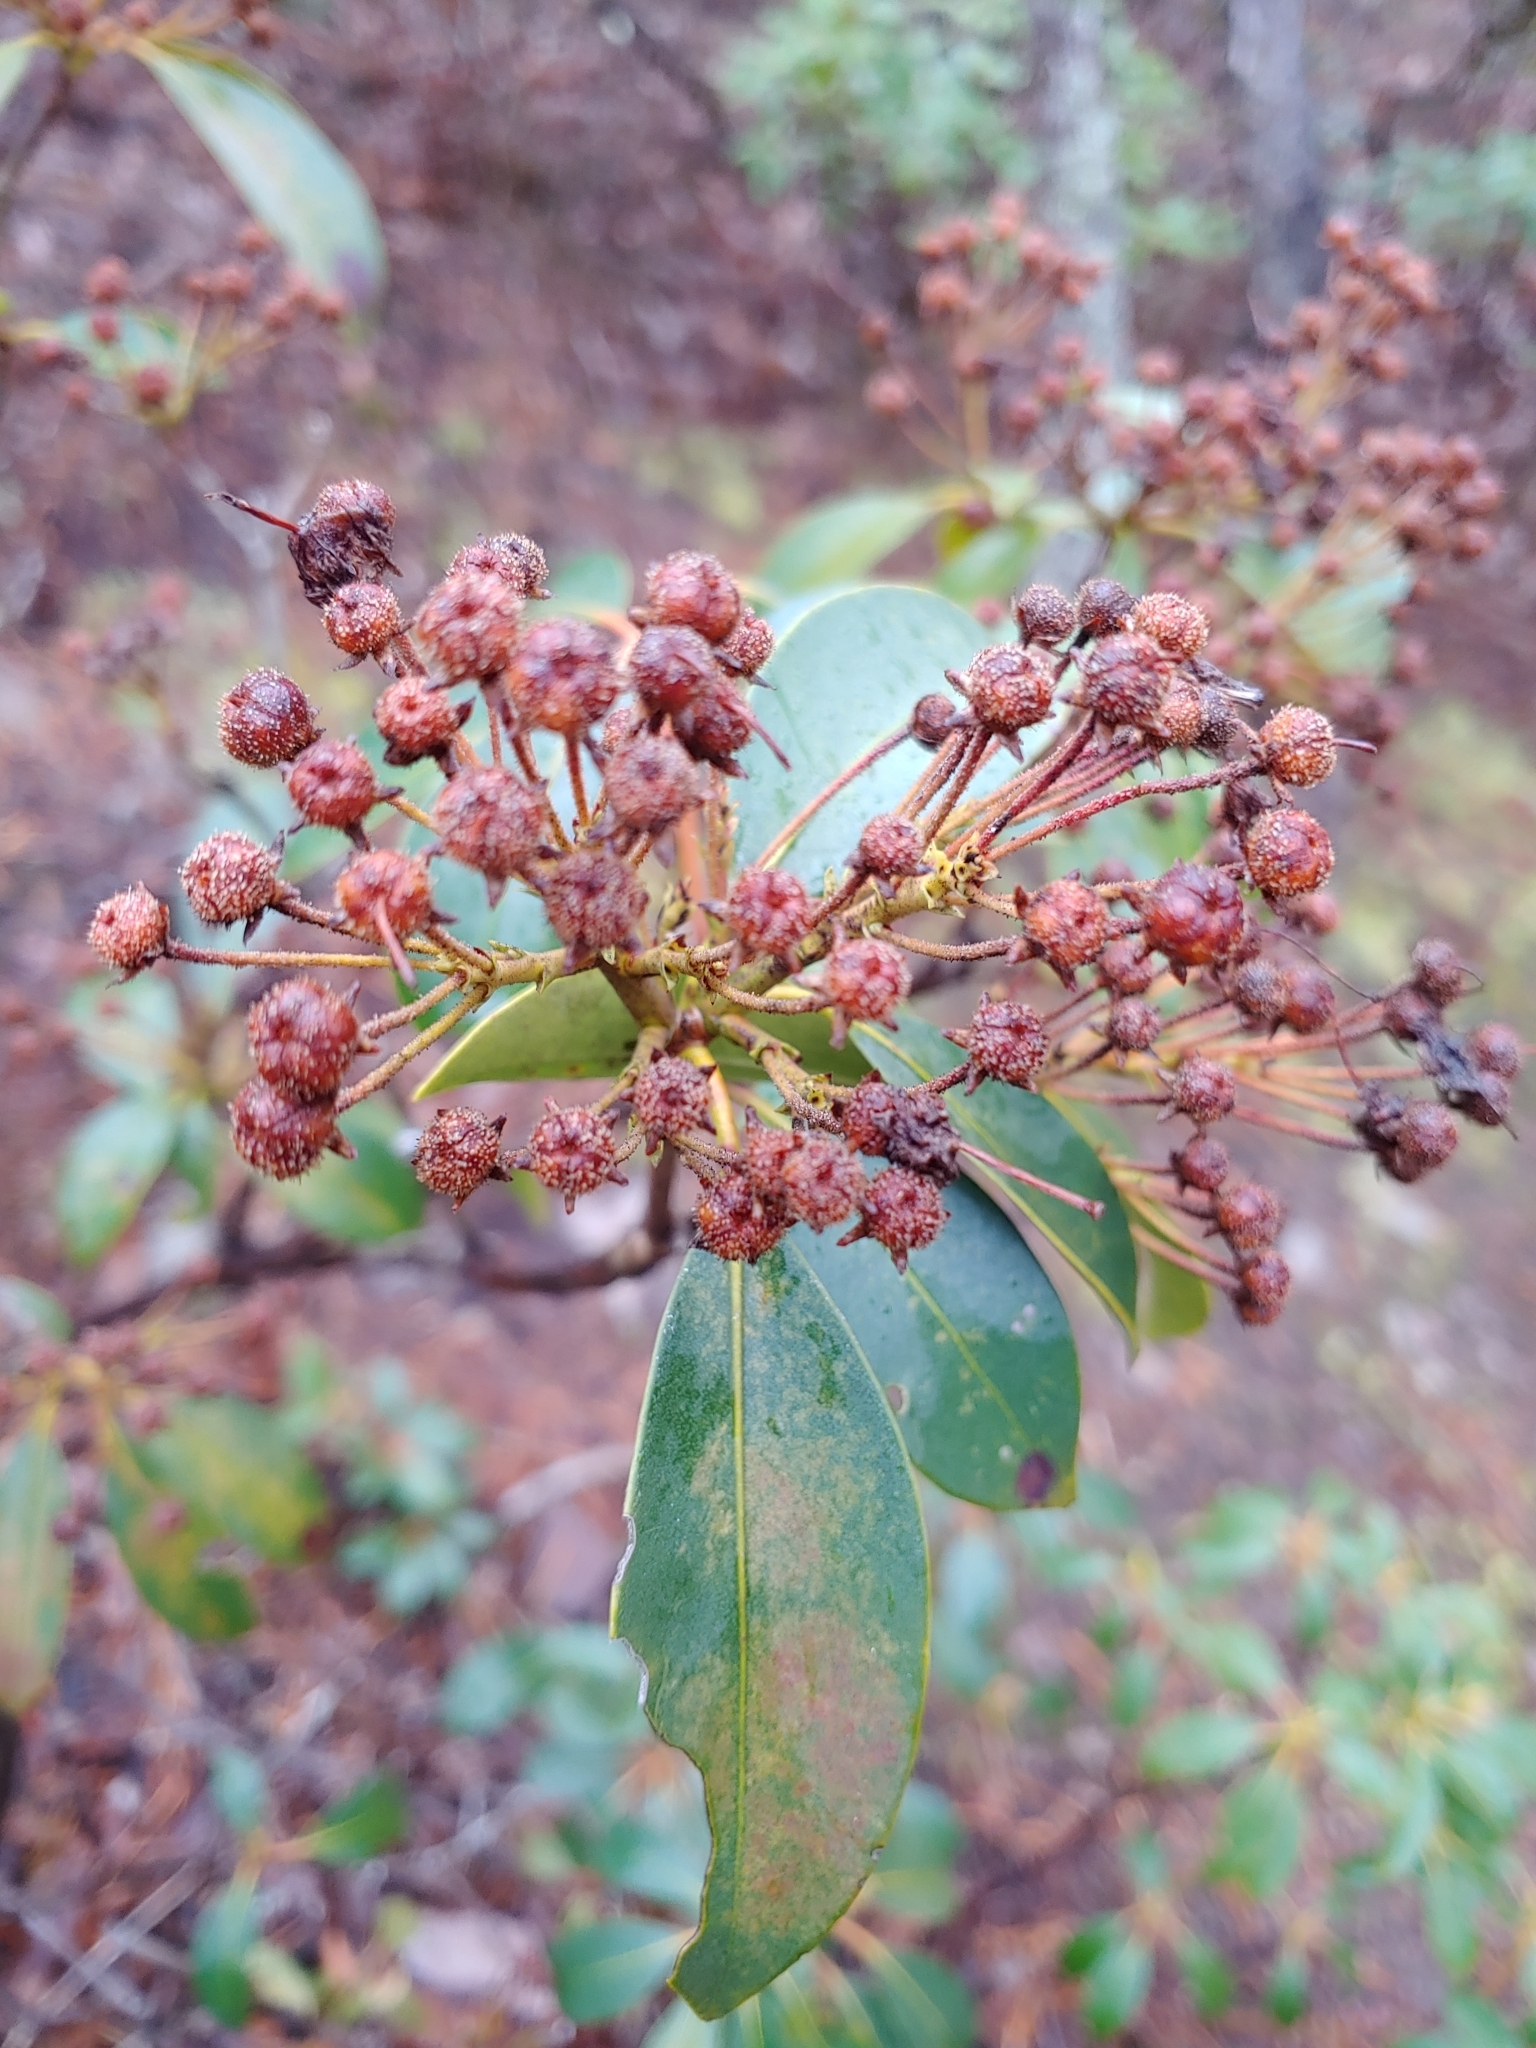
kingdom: Plantae
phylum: Tracheophyta
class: Magnoliopsida
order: Ericales
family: Ericaceae
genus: Kalmia
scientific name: Kalmia latifolia
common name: Mountain-laurel
